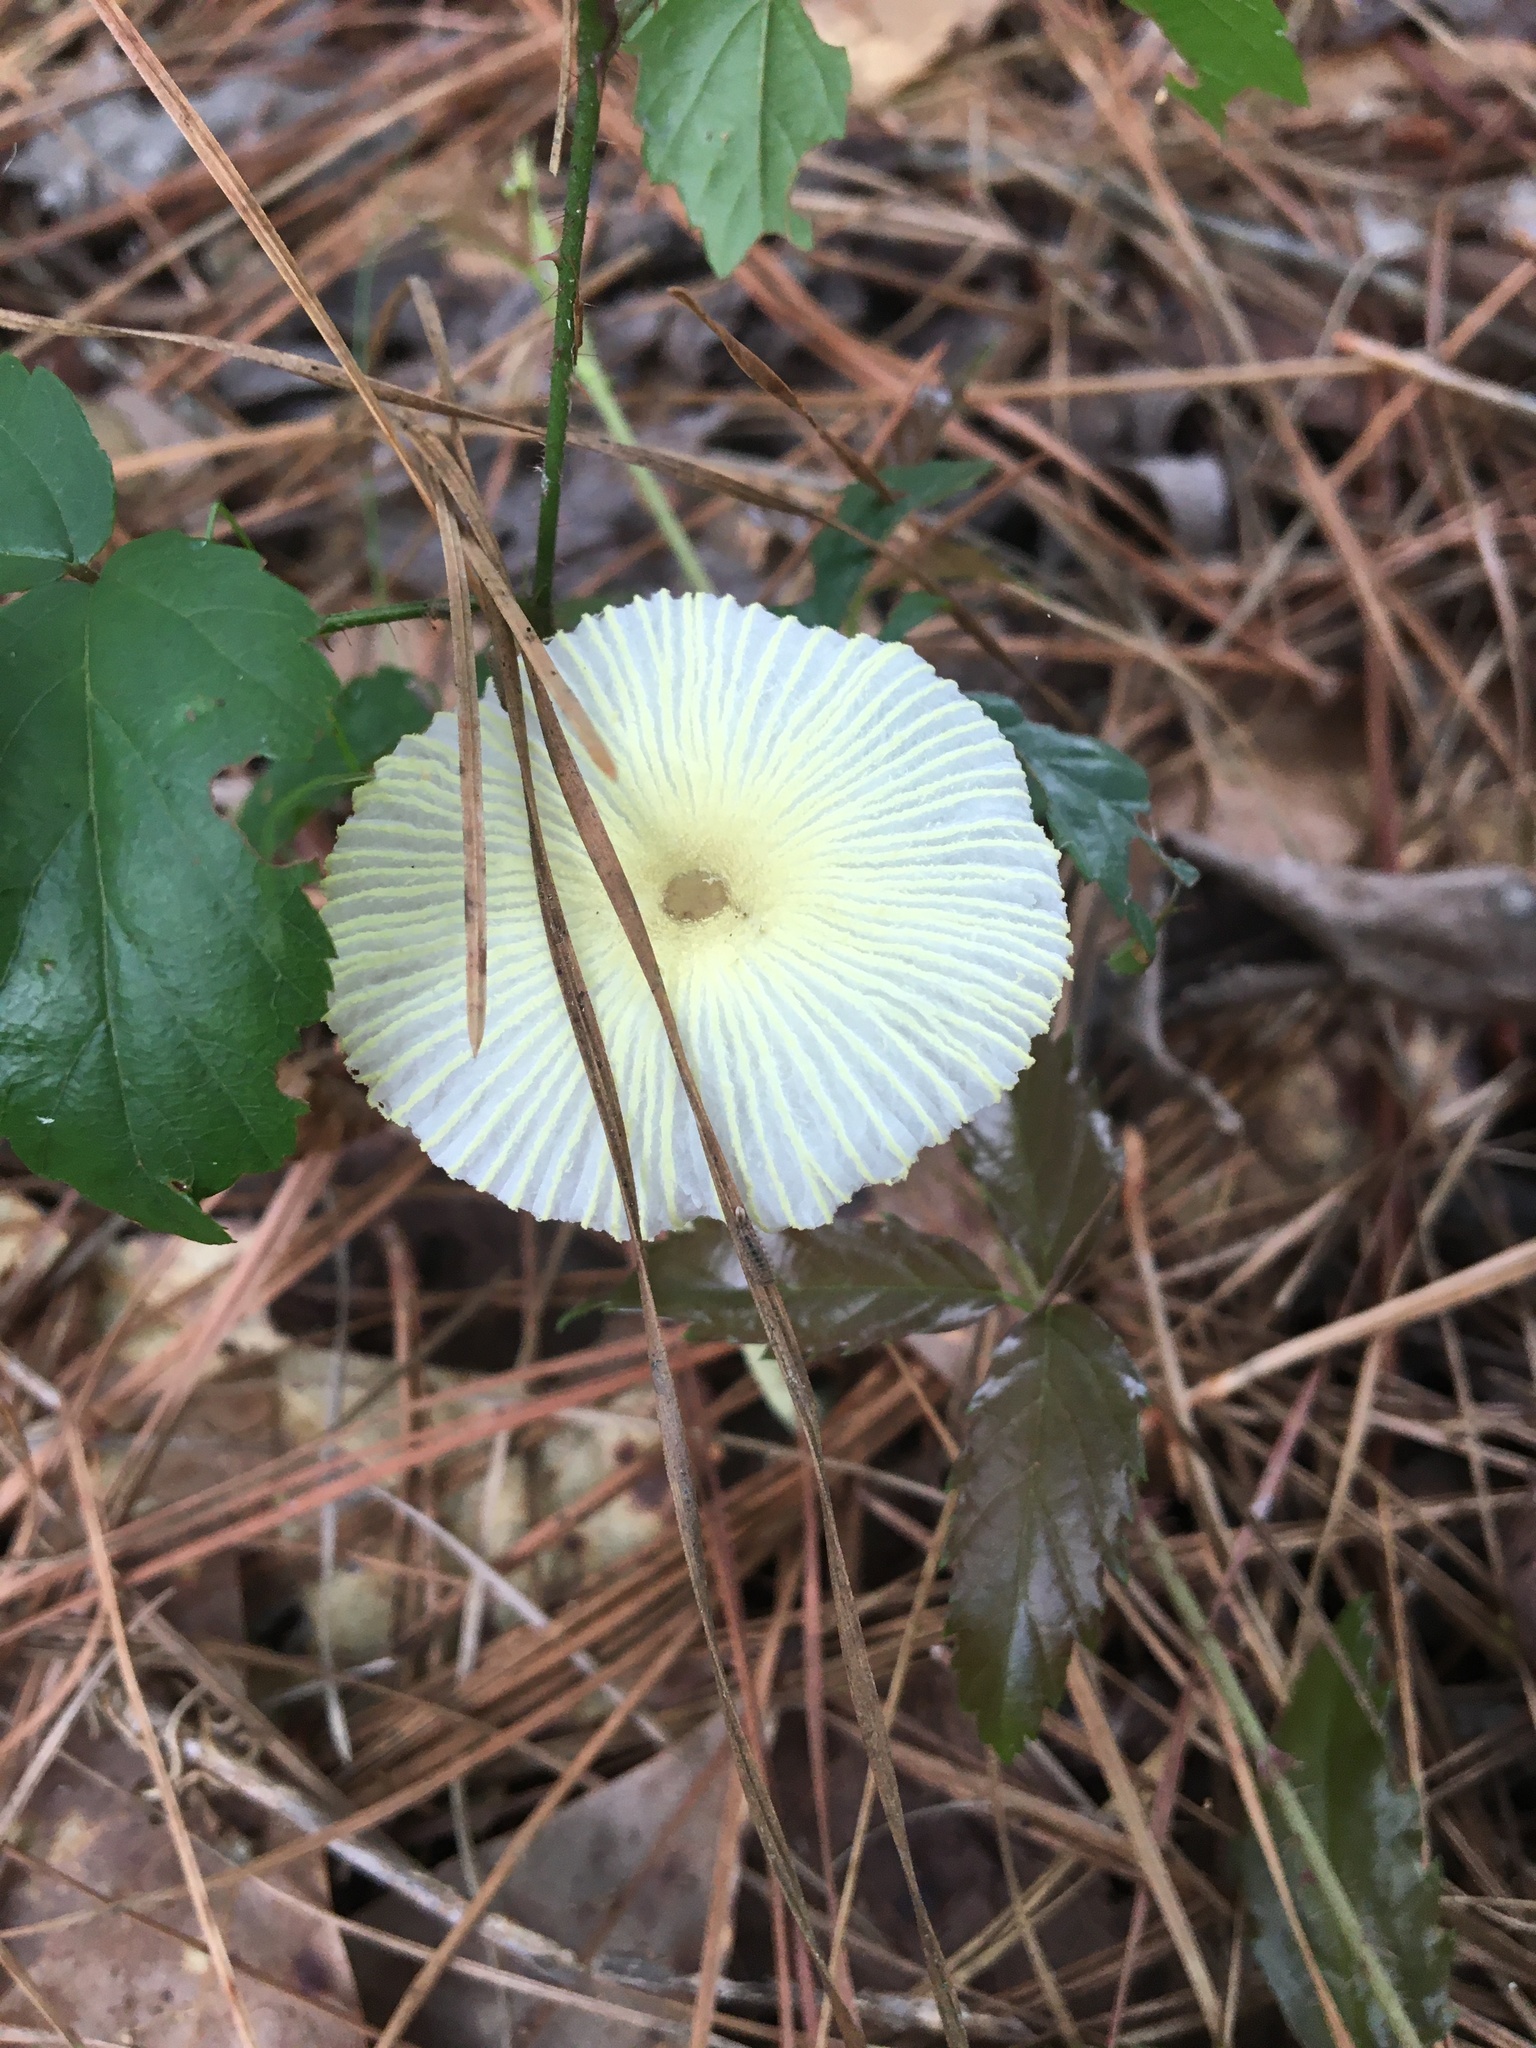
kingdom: Fungi
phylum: Basidiomycota
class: Agaricomycetes
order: Agaricales
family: Agaricaceae
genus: Leucocoprinus
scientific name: Leucocoprinus fragilissimus
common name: Fragile dapperling
